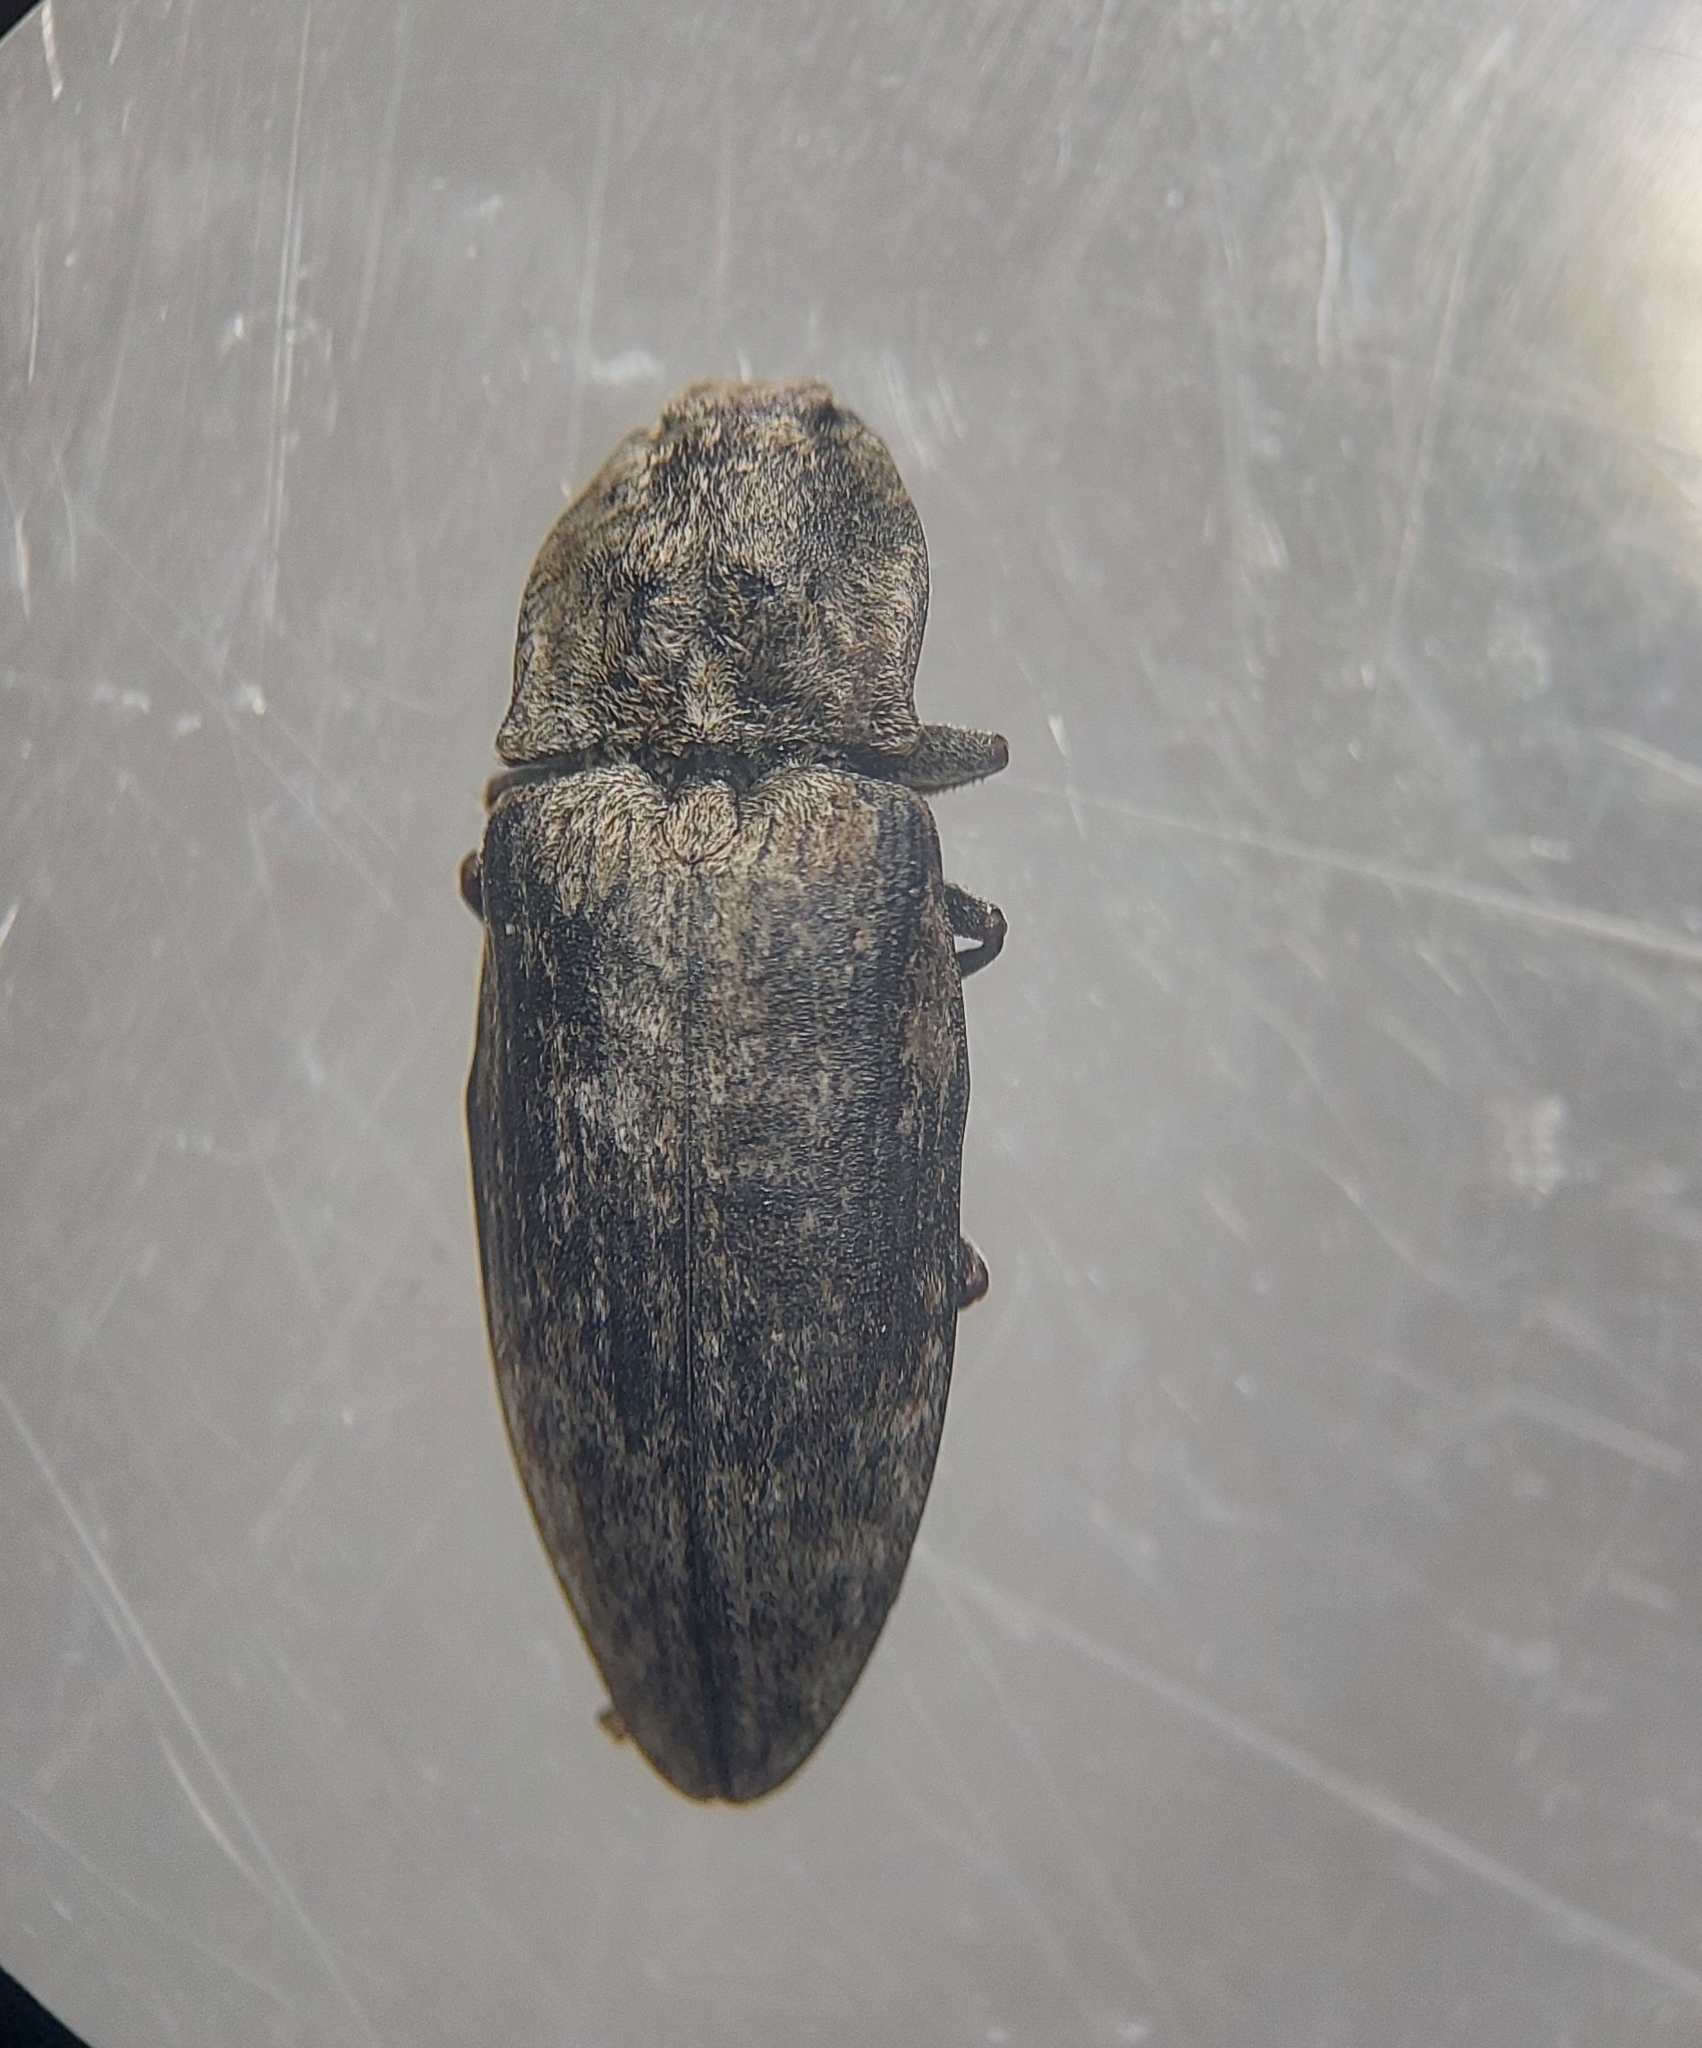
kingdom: Animalia
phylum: Arthropoda
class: Insecta
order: Coleoptera
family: Elateridae
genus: Agrypnus
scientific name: Agrypnus murinus
